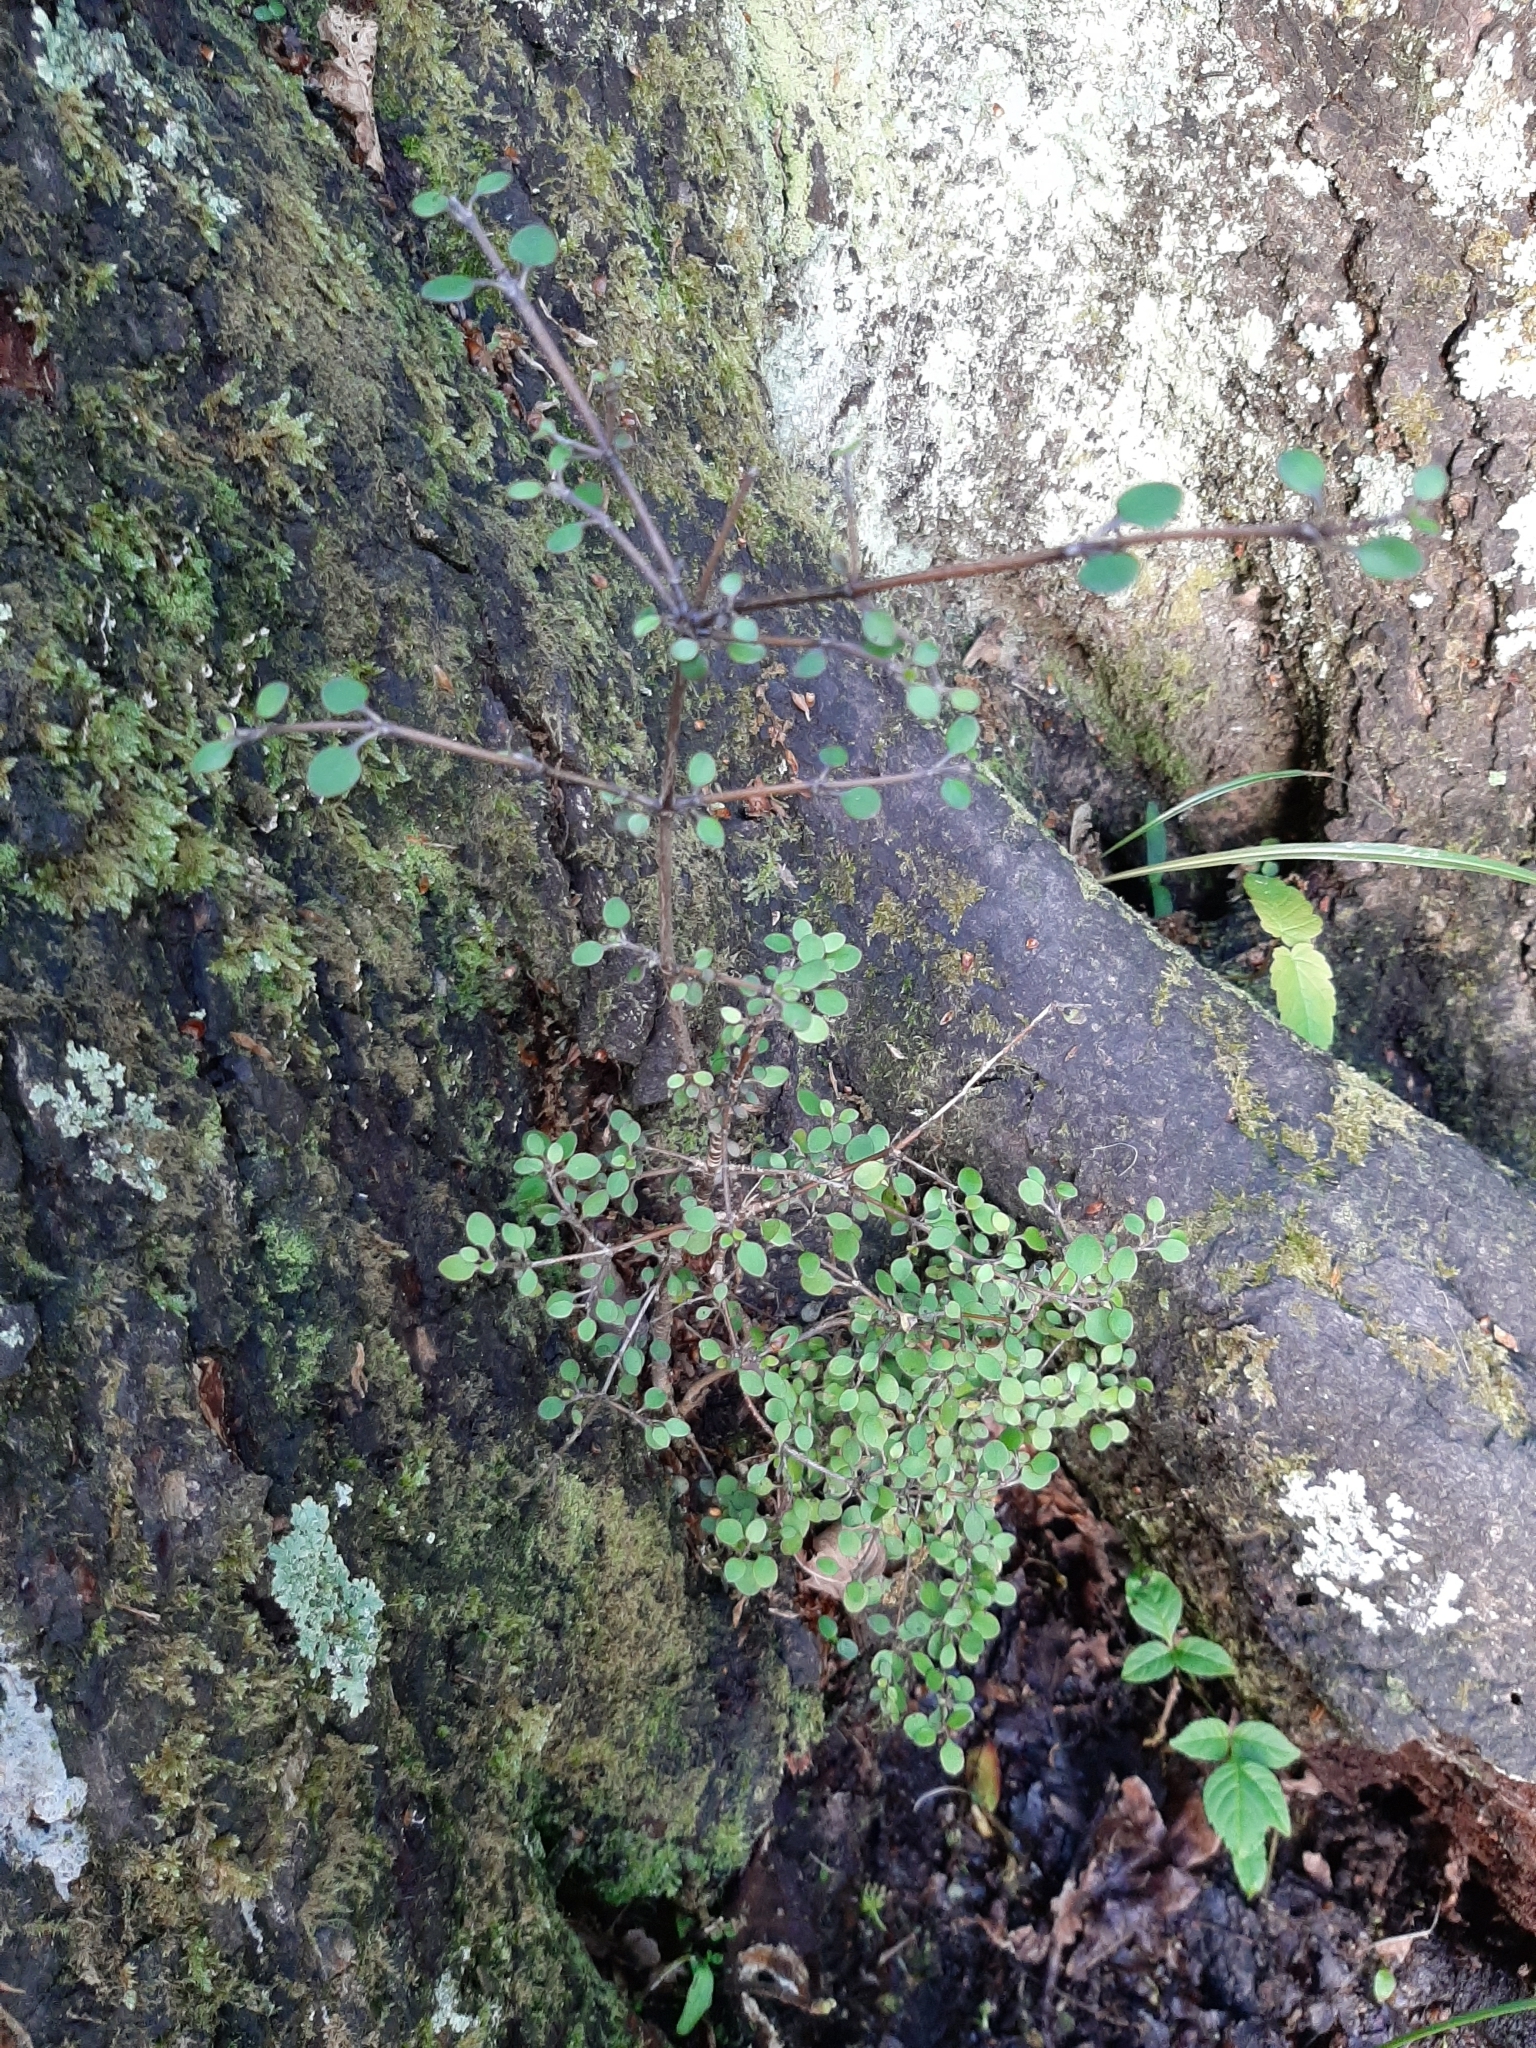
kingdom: Plantae
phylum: Tracheophyta
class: Magnoliopsida
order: Gentianales
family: Rubiaceae
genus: Coprosma
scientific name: Coprosma crassifolia
